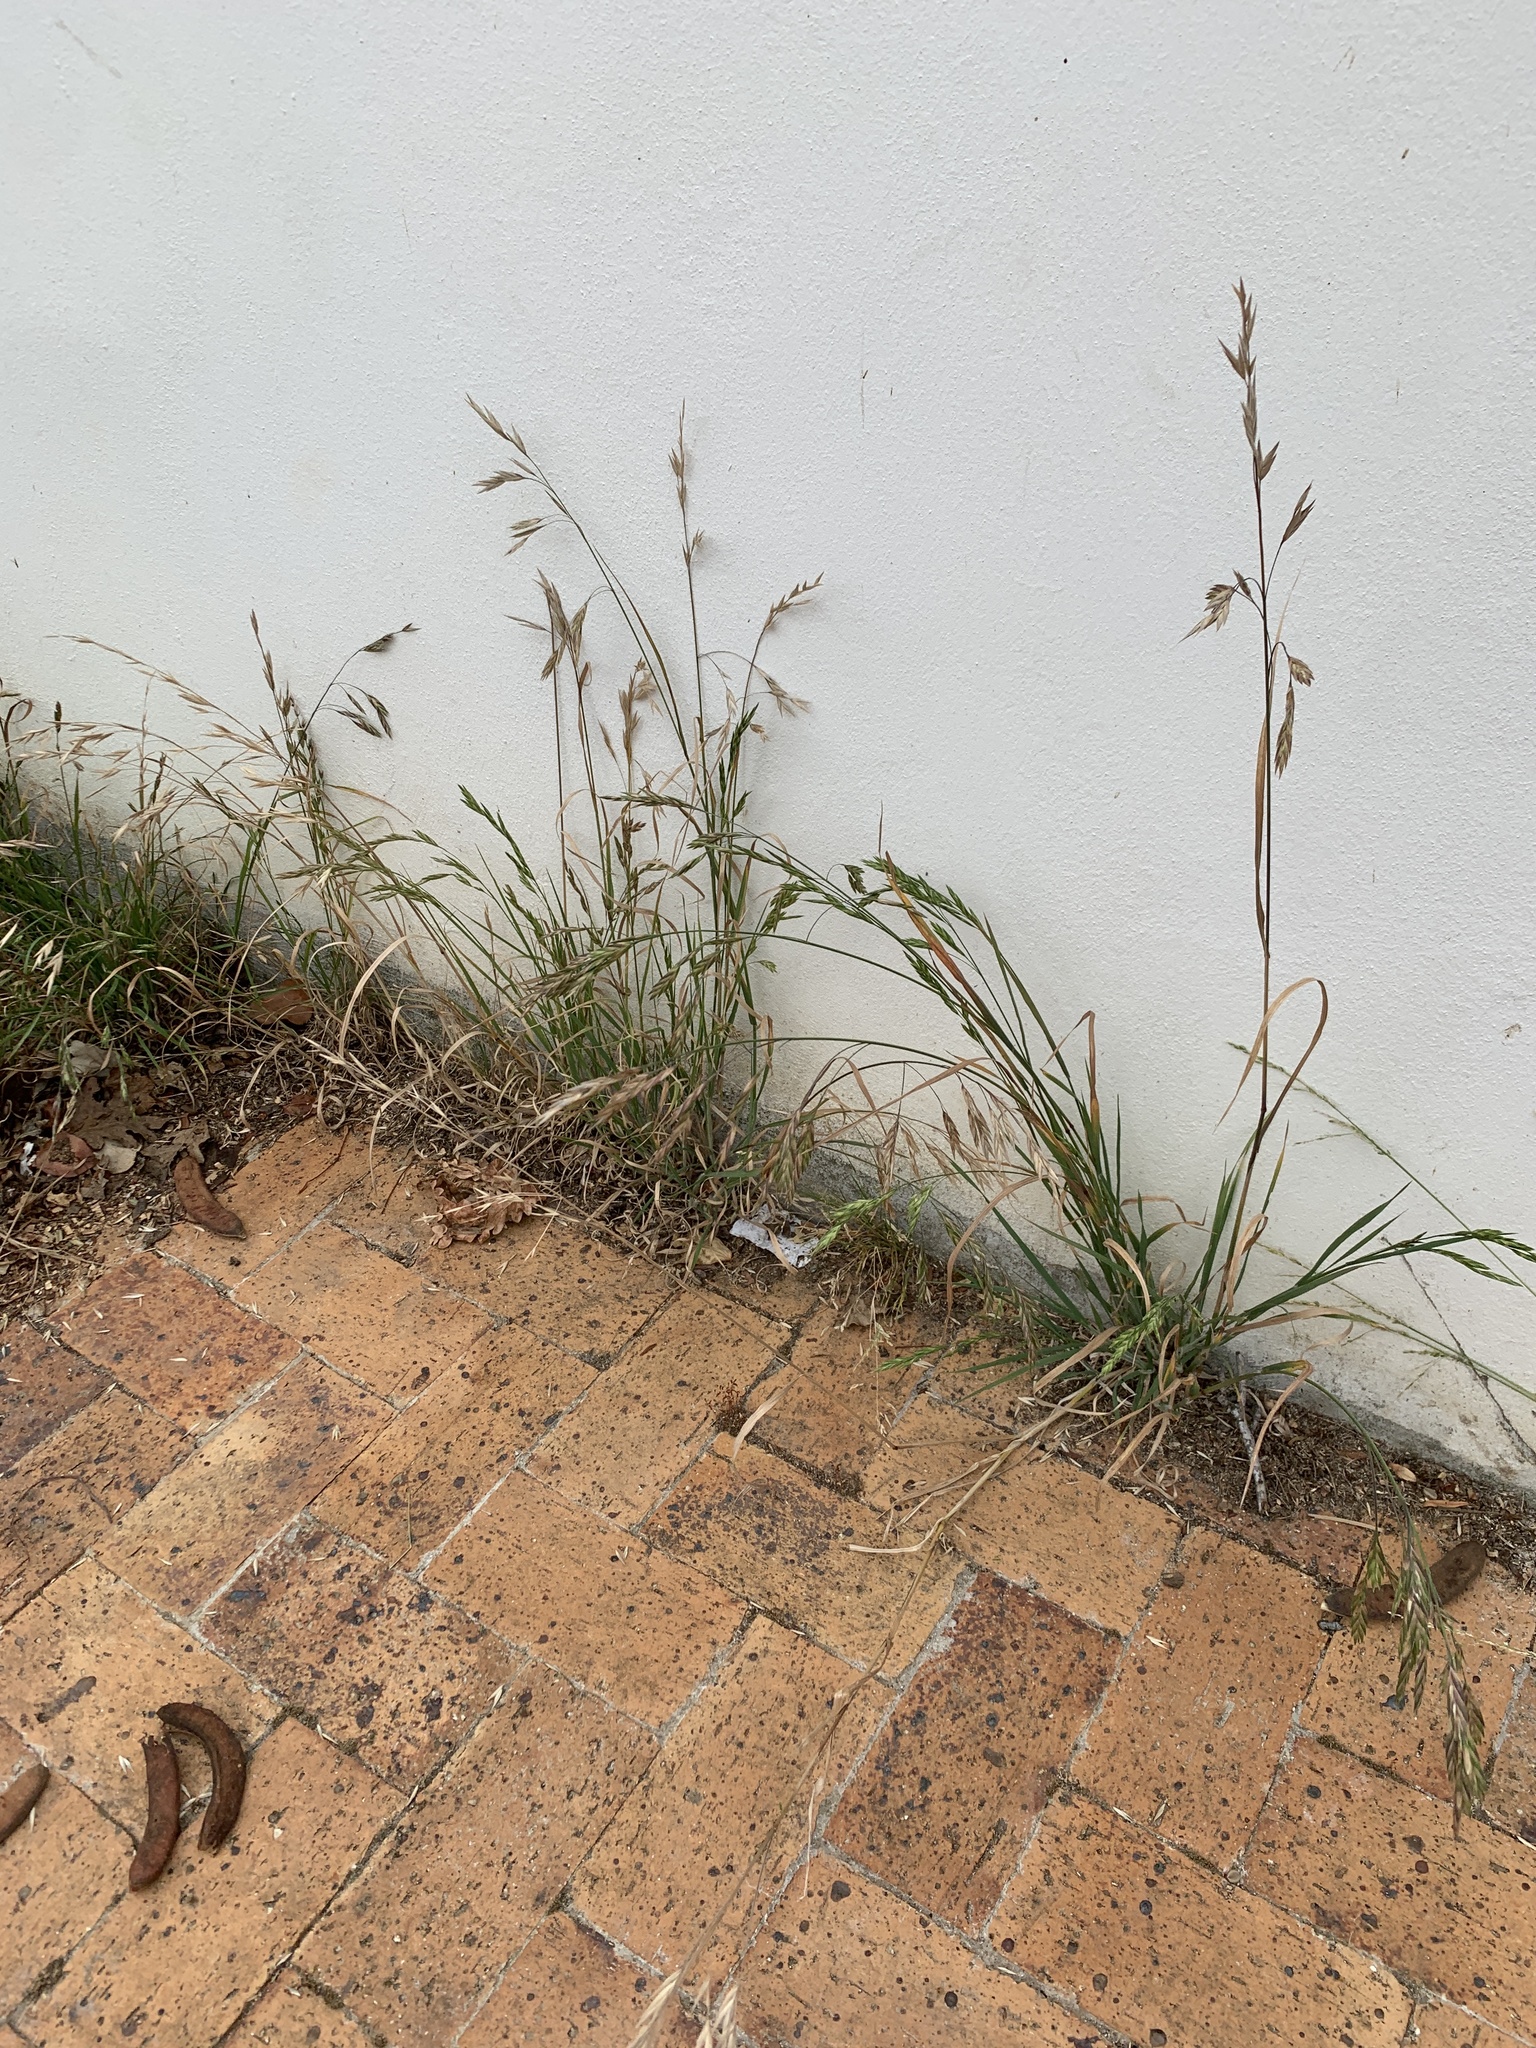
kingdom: Plantae
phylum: Tracheophyta
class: Liliopsida
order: Poales
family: Poaceae
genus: Bromus
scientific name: Bromus catharticus
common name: Rescuegrass
